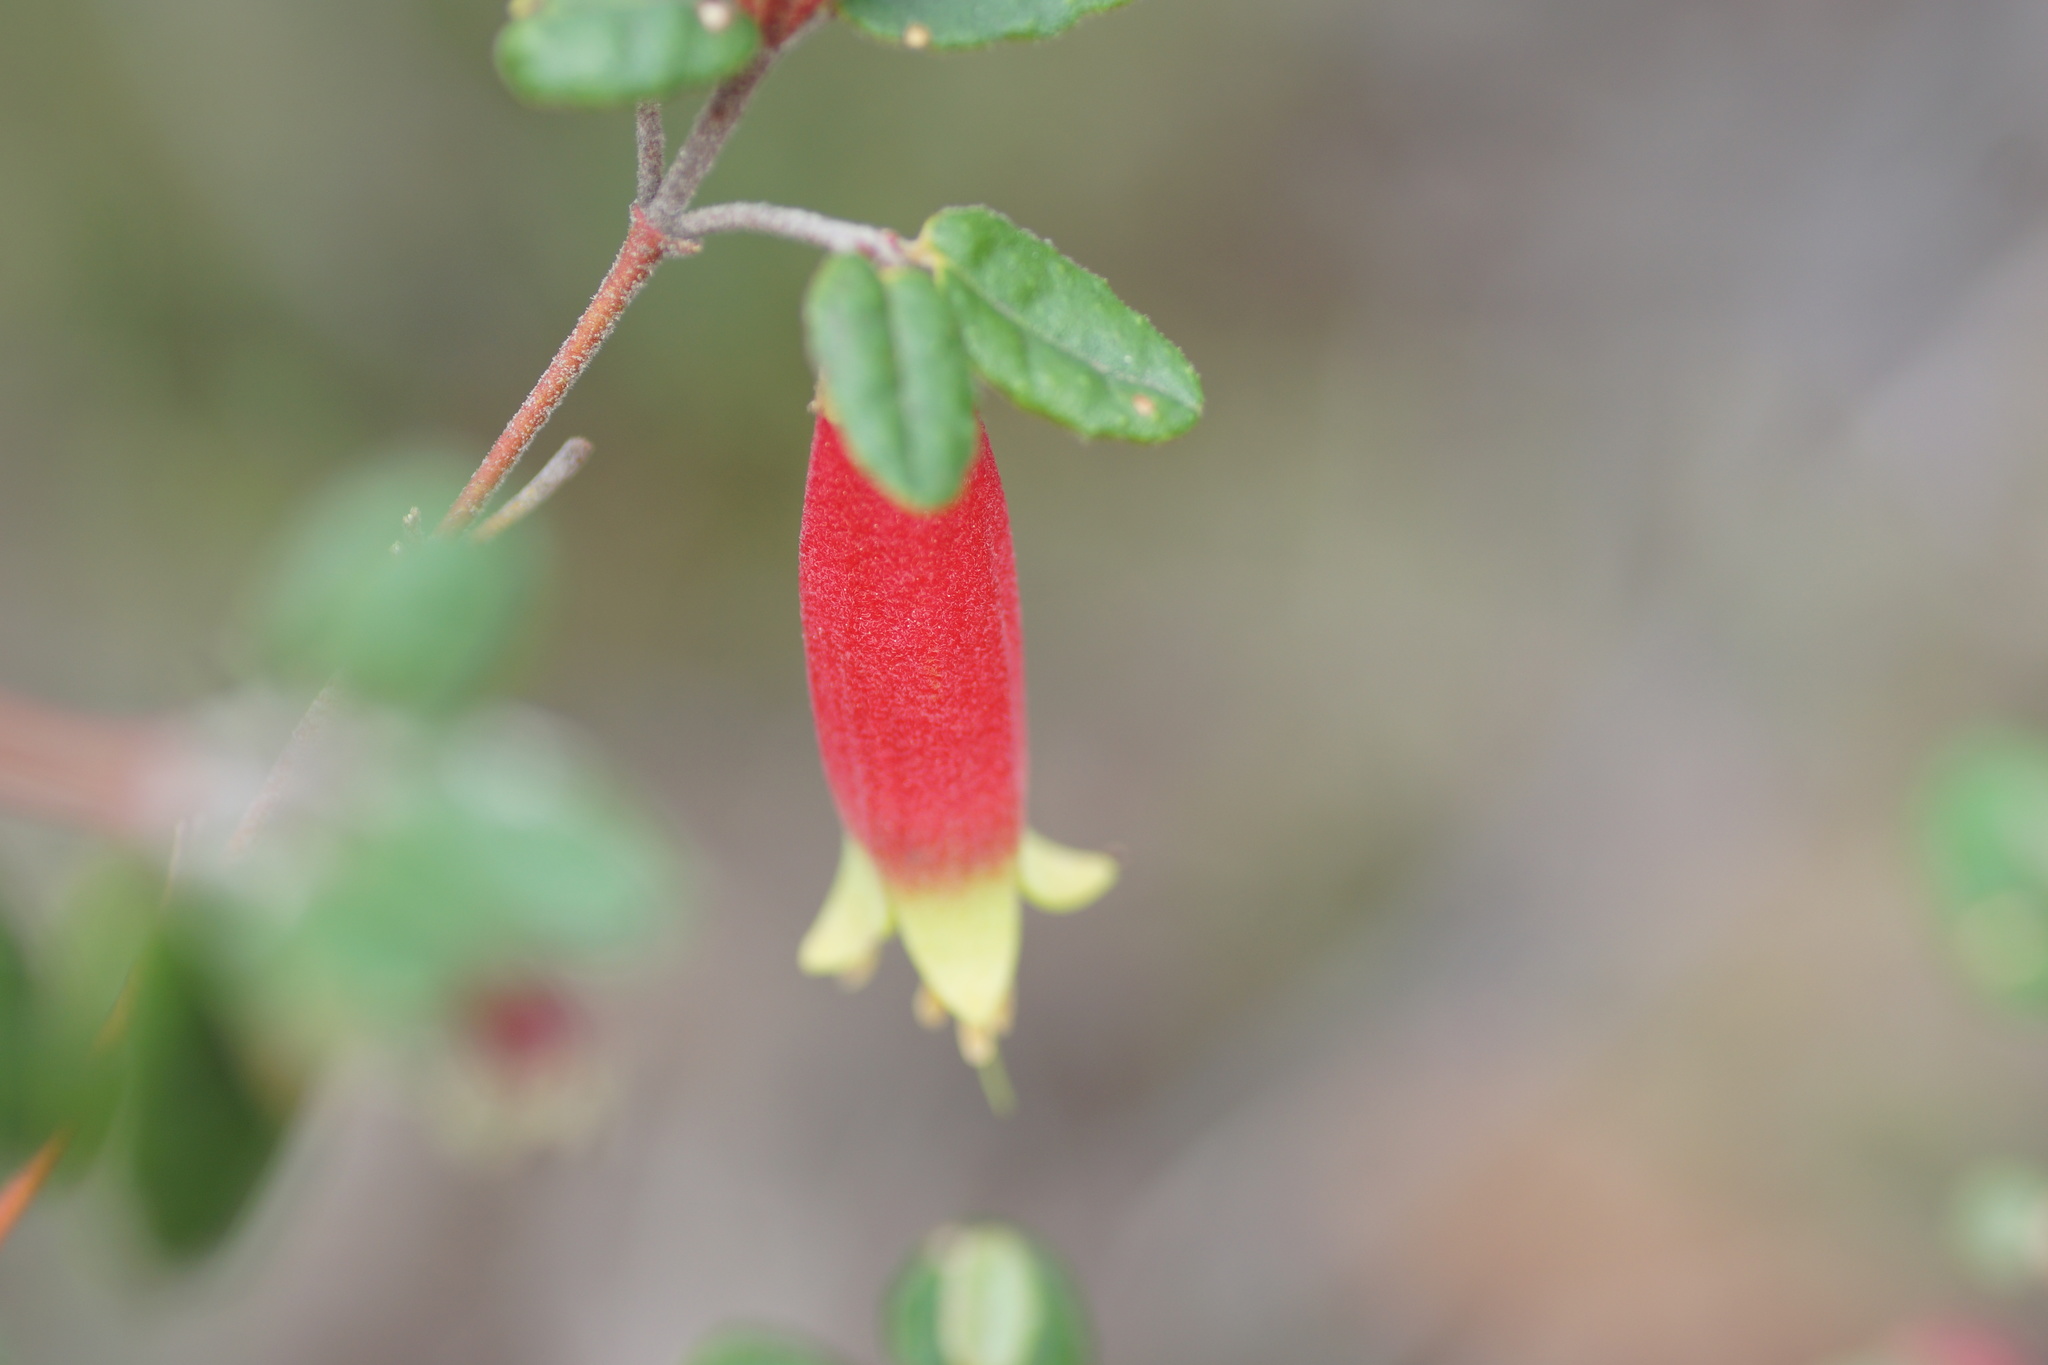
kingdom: Plantae
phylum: Tracheophyta
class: Magnoliopsida
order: Sapindales
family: Rutaceae
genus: Correa
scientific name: Correa reflexa
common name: Common correa
